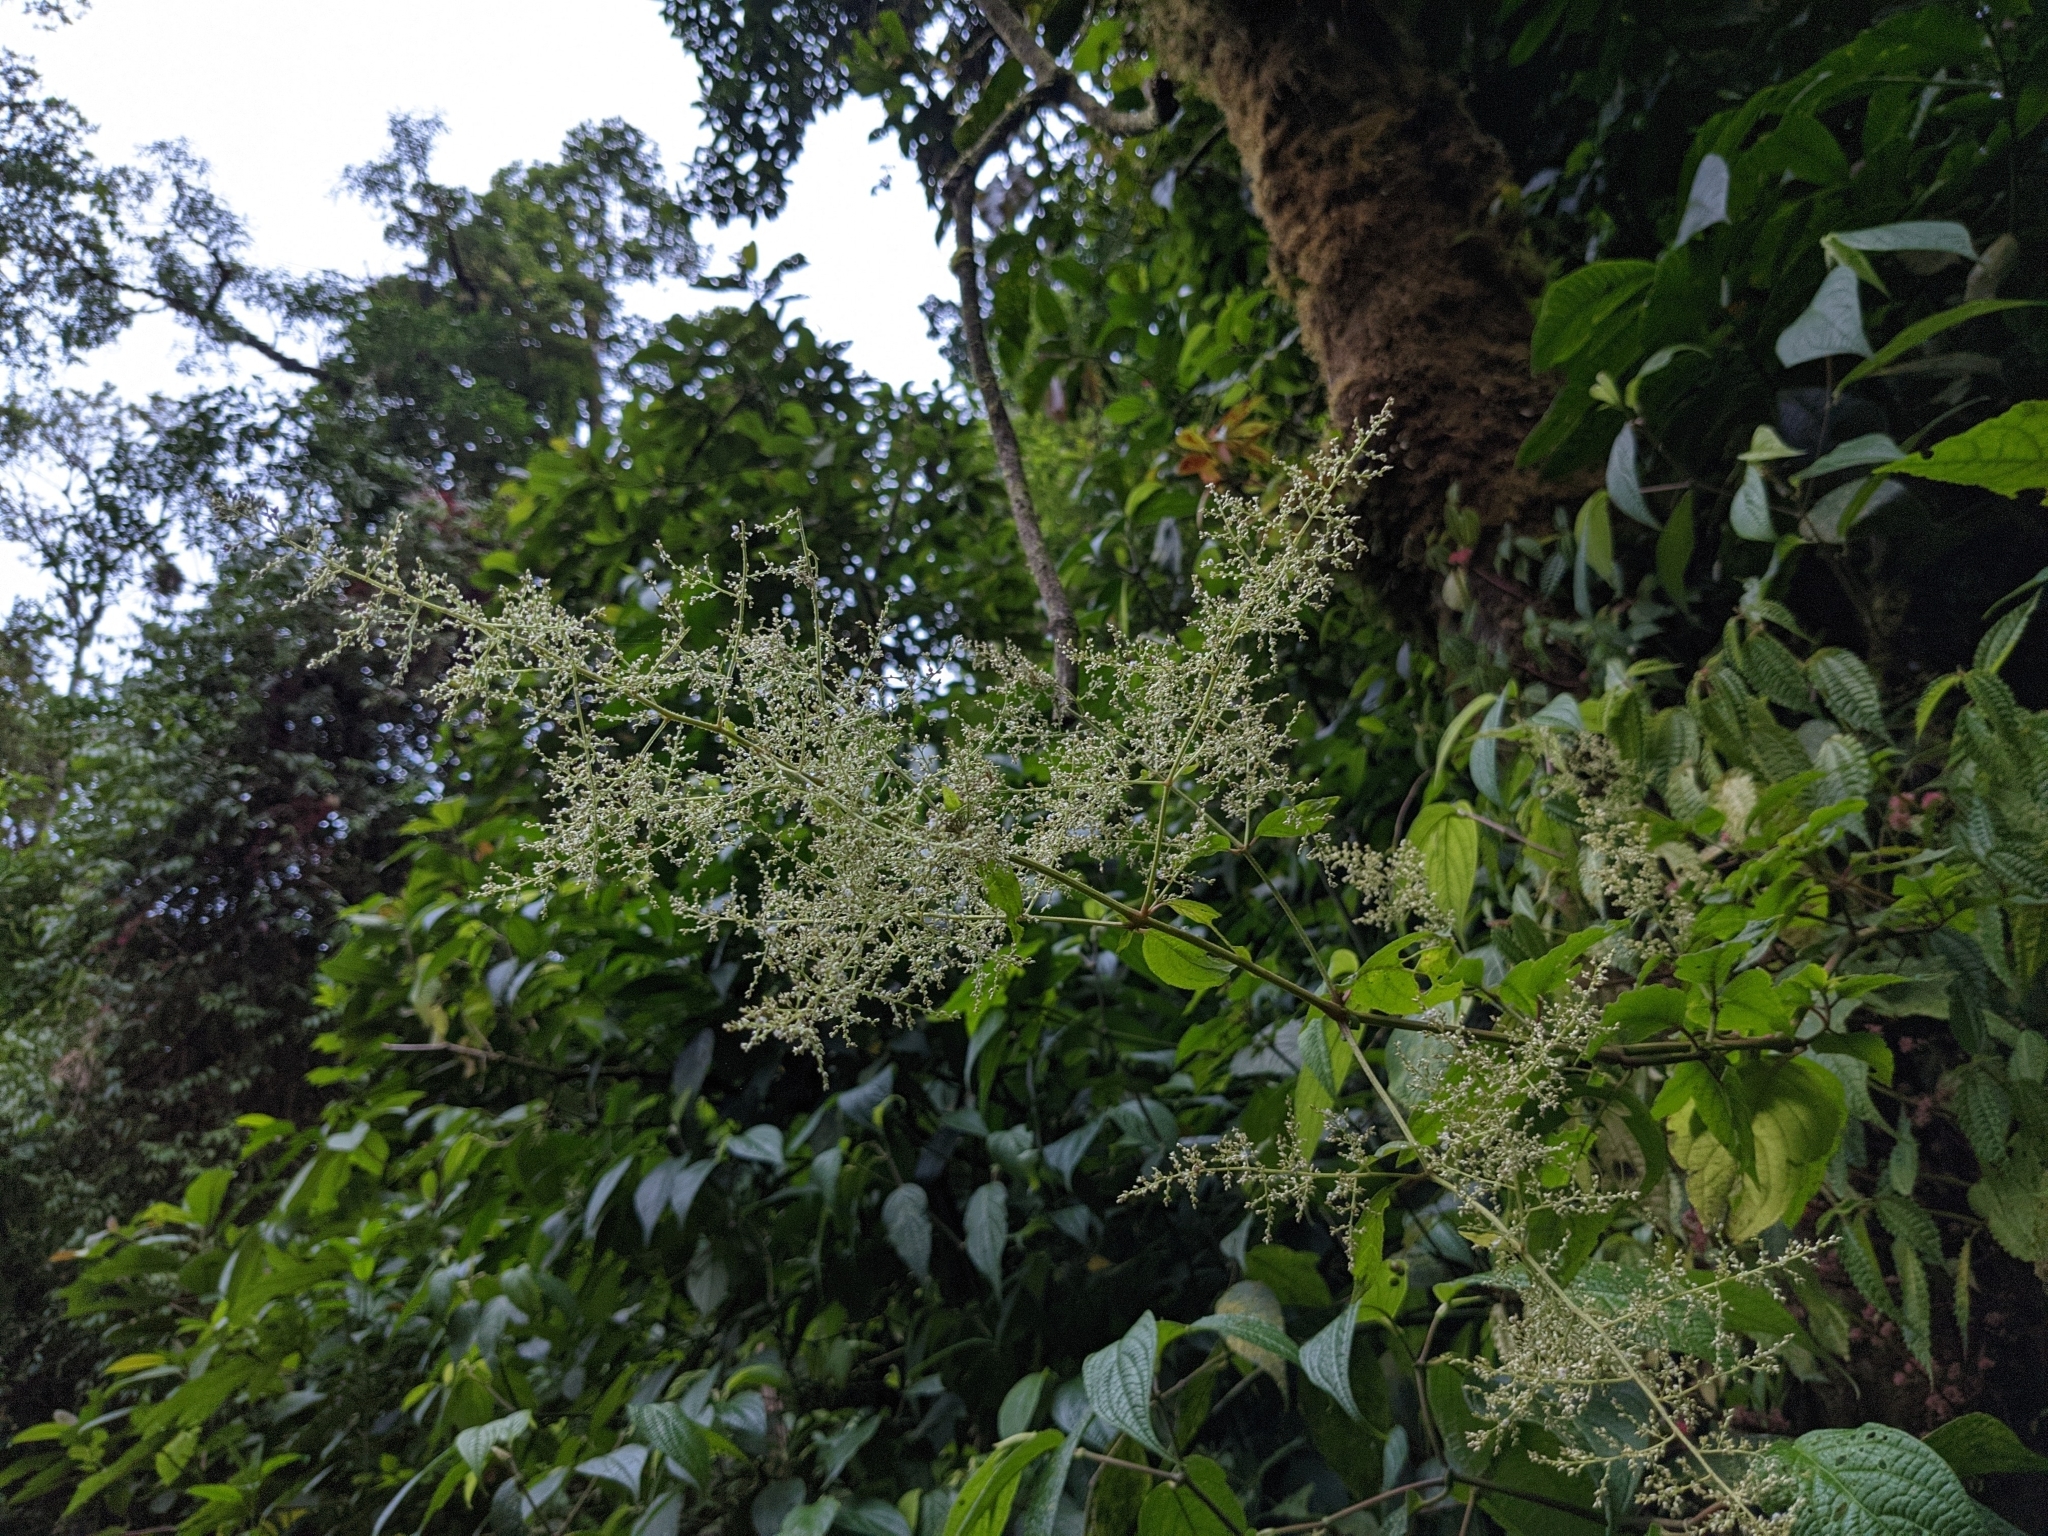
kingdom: Plantae
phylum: Tracheophyta
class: Magnoliopsida
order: Caryophyllales
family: Amaranthaceae
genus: Iresine
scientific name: Iresine diffusa
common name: Juba's-bush
